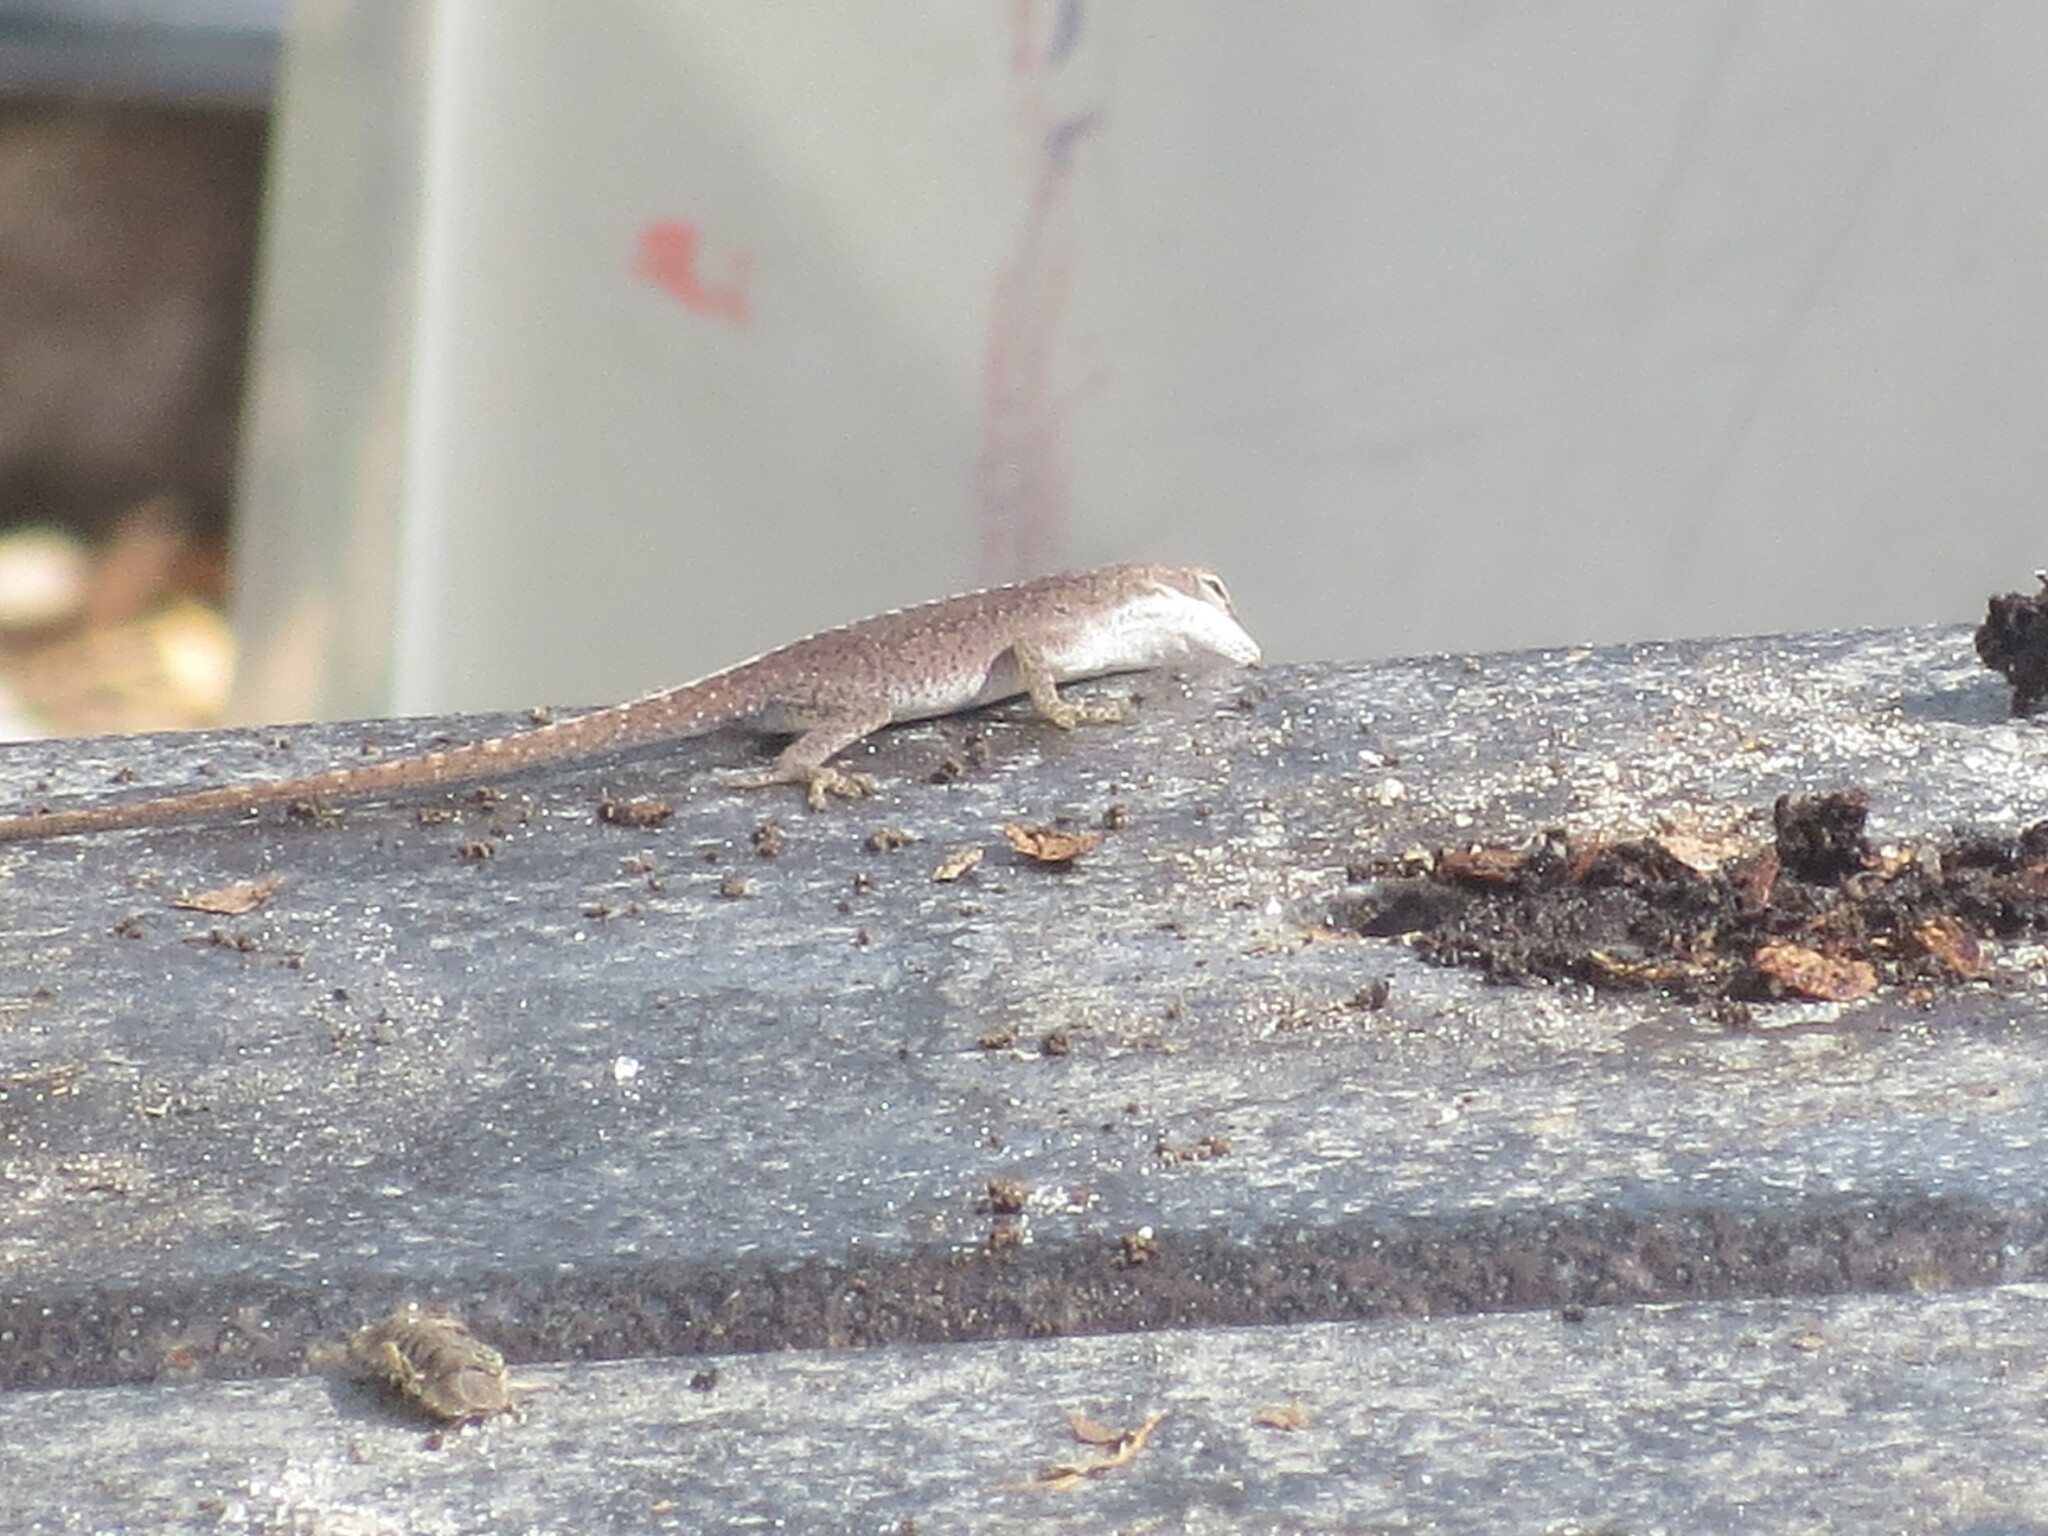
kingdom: Animalia
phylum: Chordata
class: Squamata
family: Dactyloidae
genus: Anolis
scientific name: Anolis carolinensis
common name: Green anole
